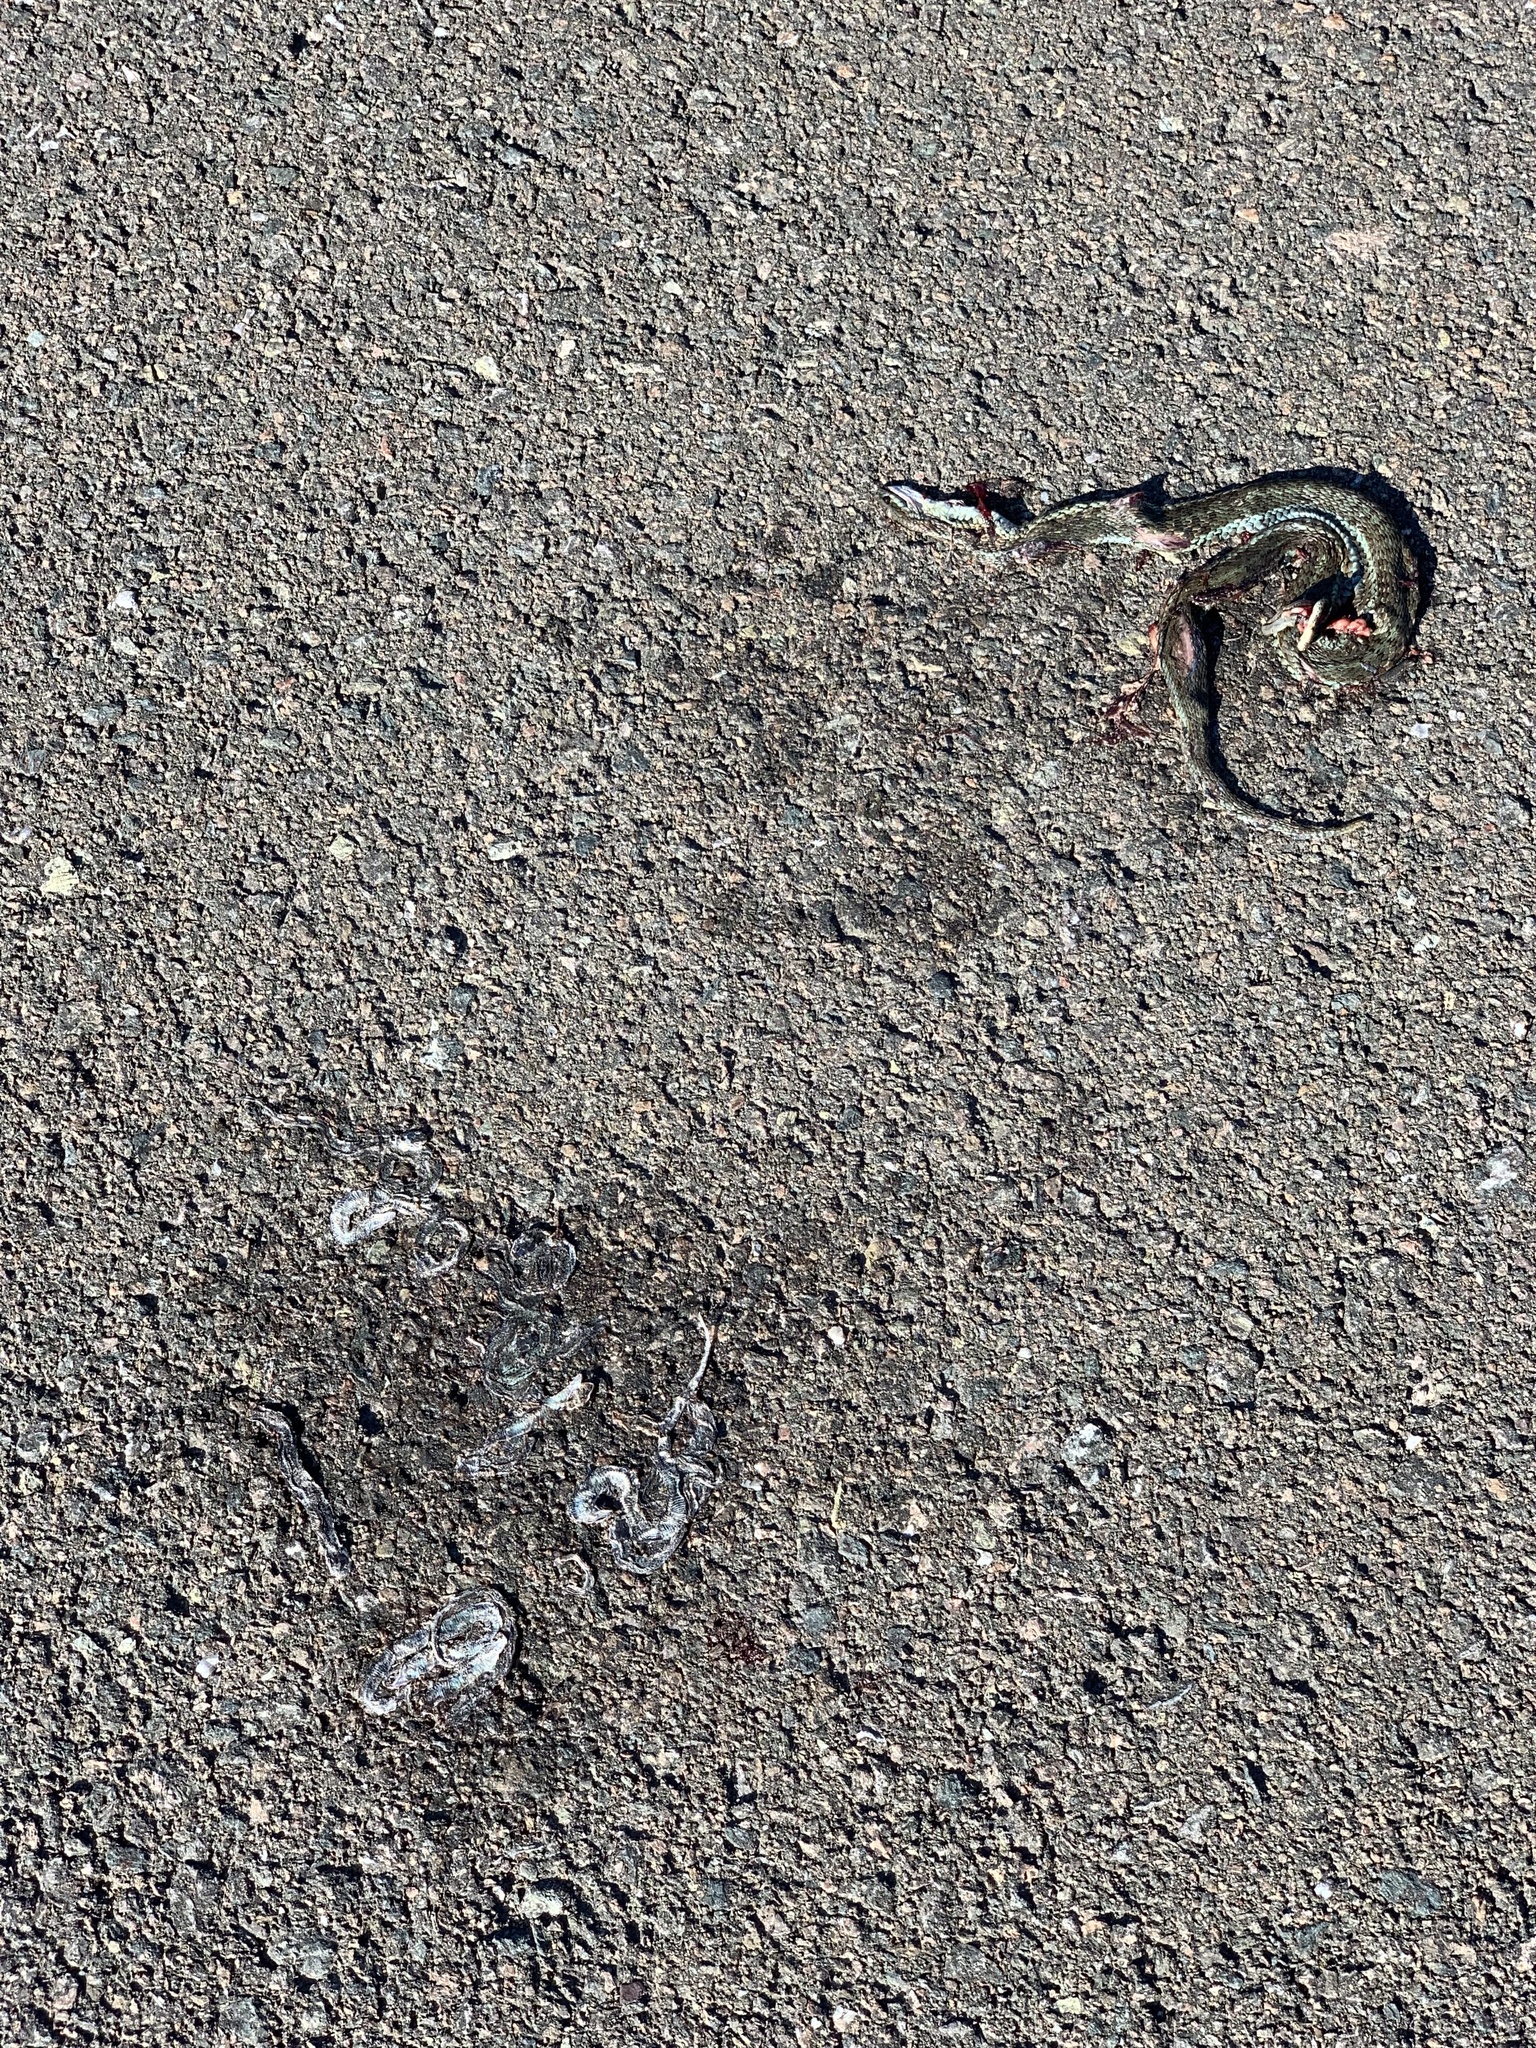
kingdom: Animalia
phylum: Chordata
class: Squamata
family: Colubridae
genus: Thamnophis
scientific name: Thamnophis sirtalis
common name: Common garter snake
